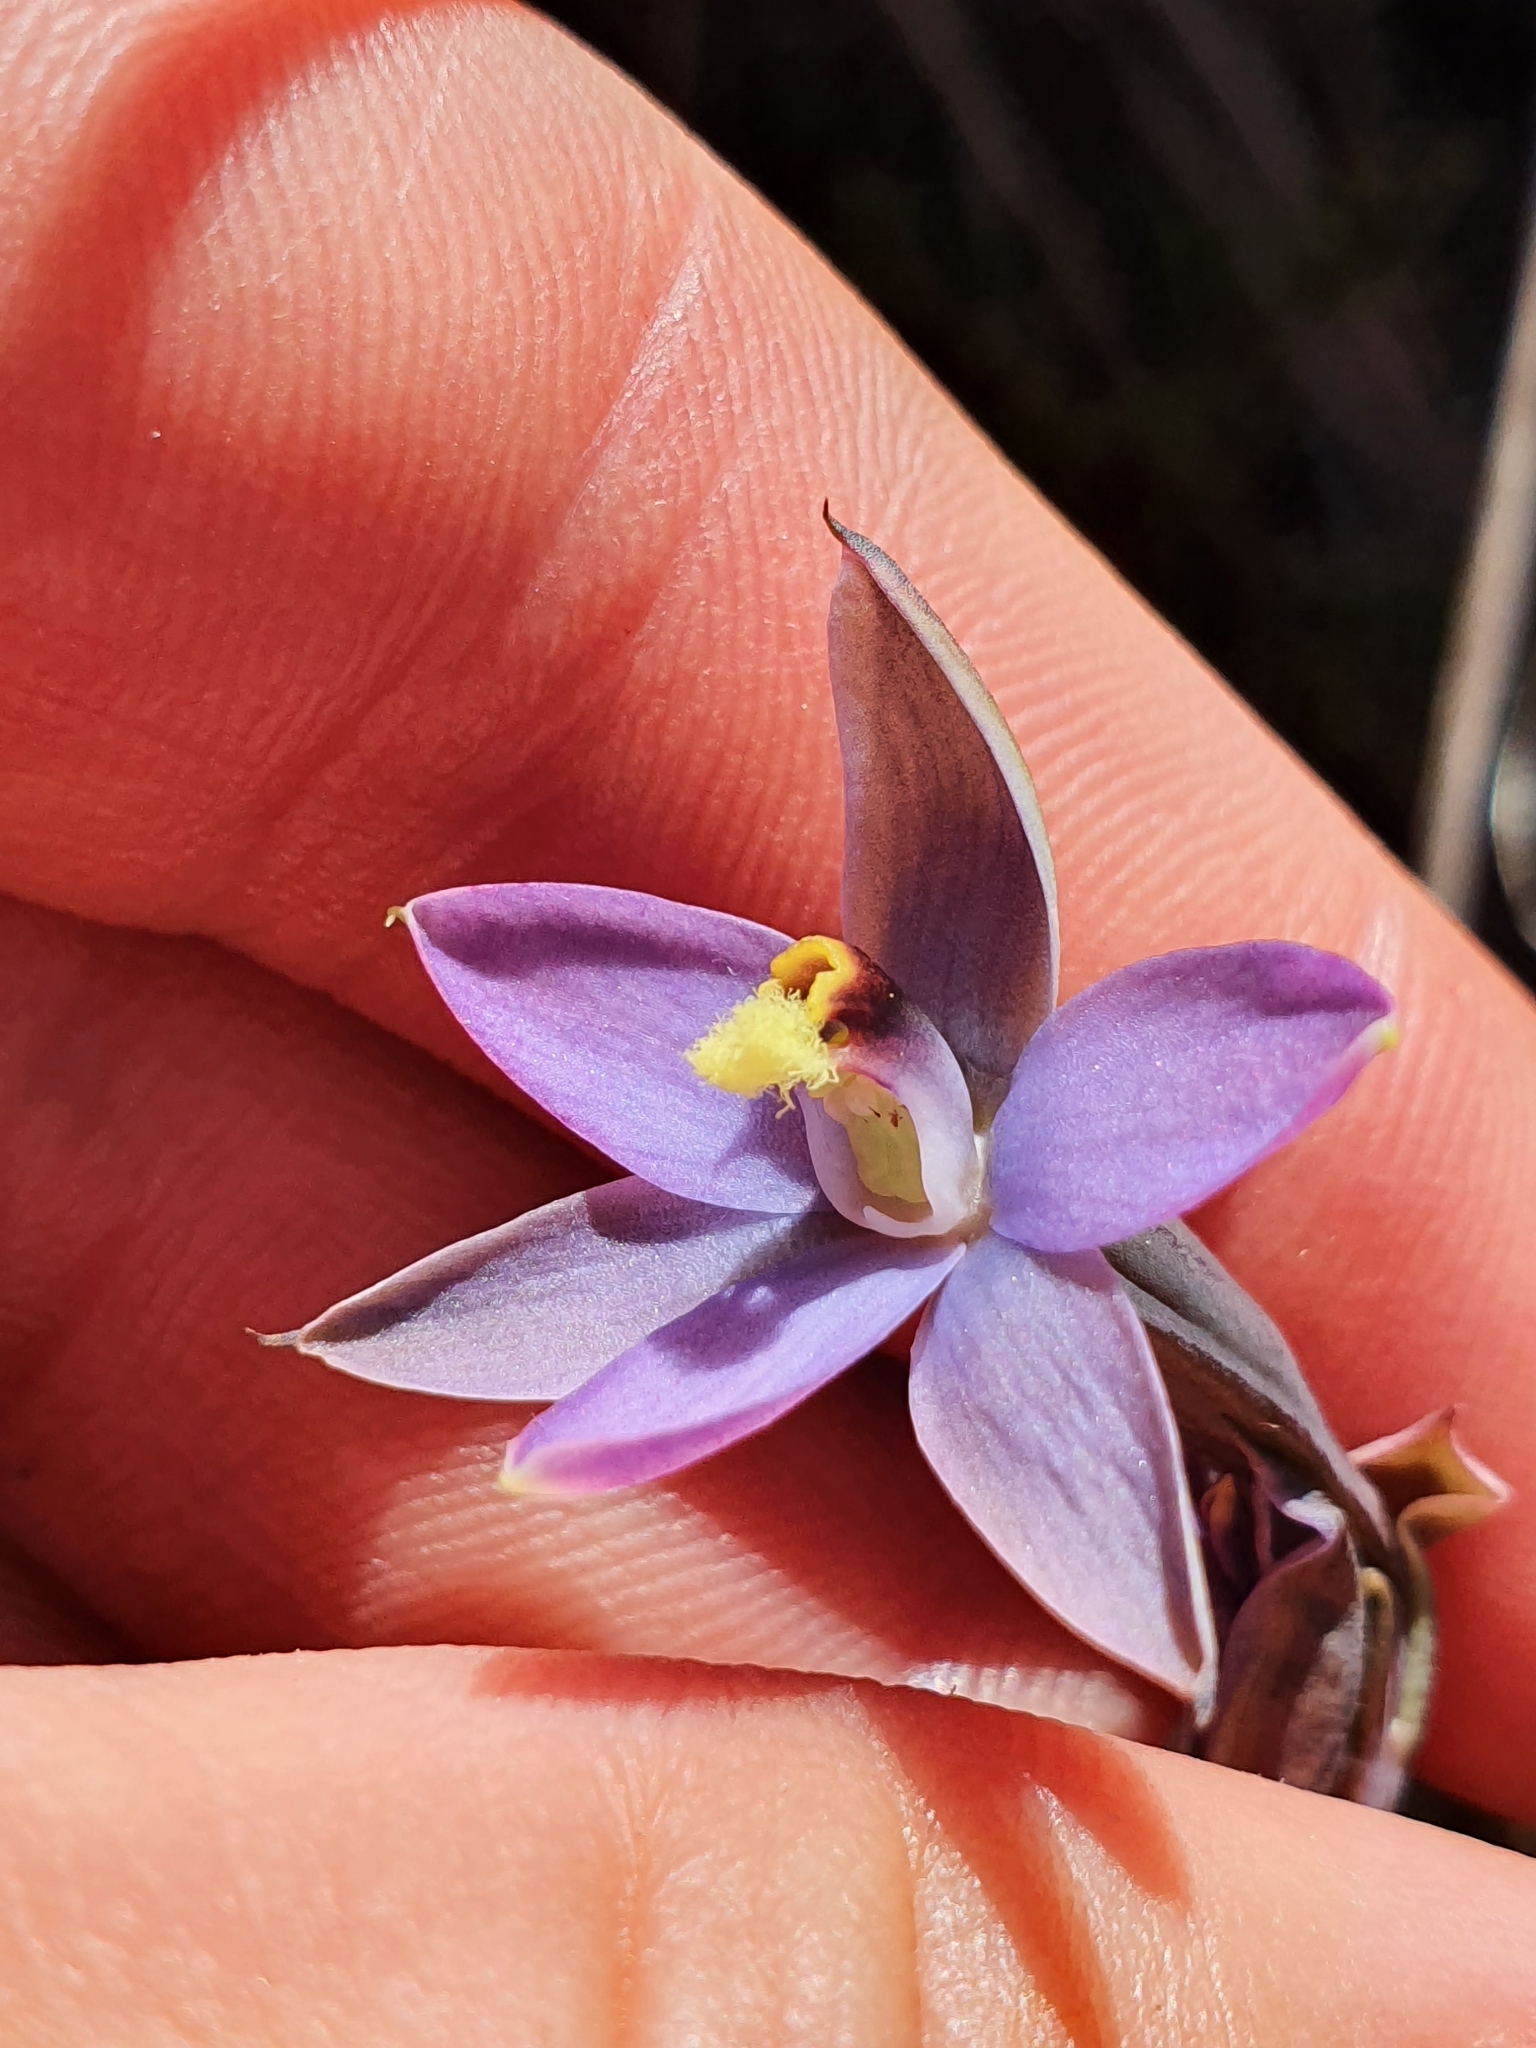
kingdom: Plantae
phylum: Tracheophyta
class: Liliopsida
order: Asparagales
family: Orchidaceae
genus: Thelymitra
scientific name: Thelymitra hatchii
